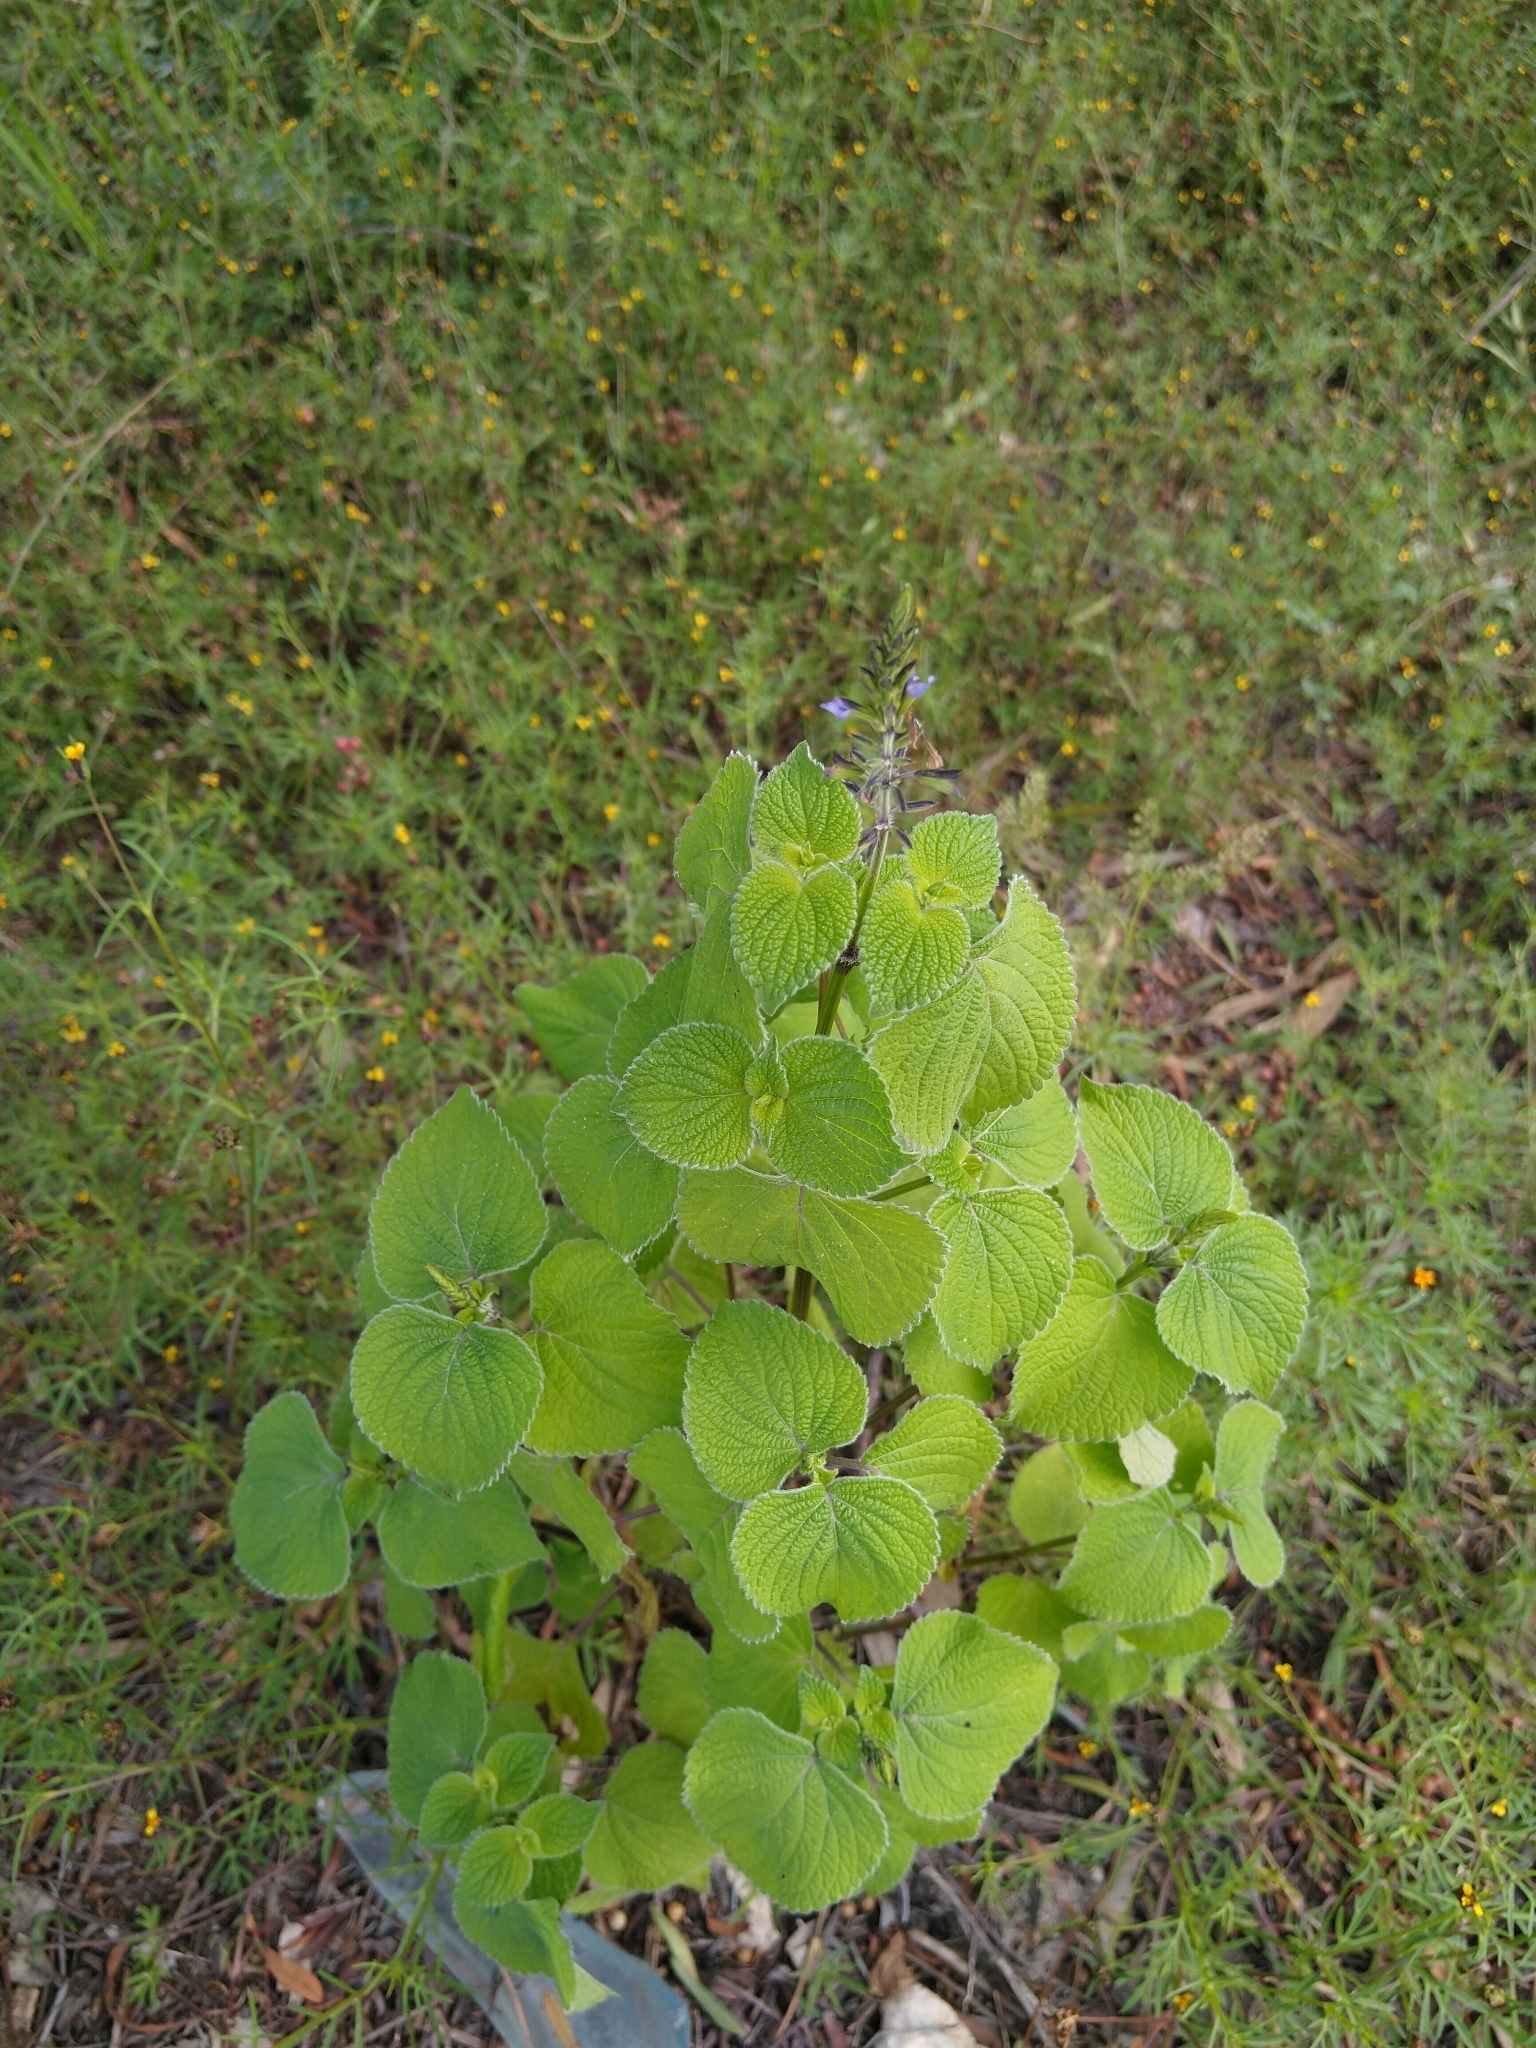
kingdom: Plantae
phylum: Tracheophyta
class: Magnoliopsida
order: Lamiales
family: Lamiaceae
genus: Salvia
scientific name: Salvia tiliifolia
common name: Lindenleaf sage
